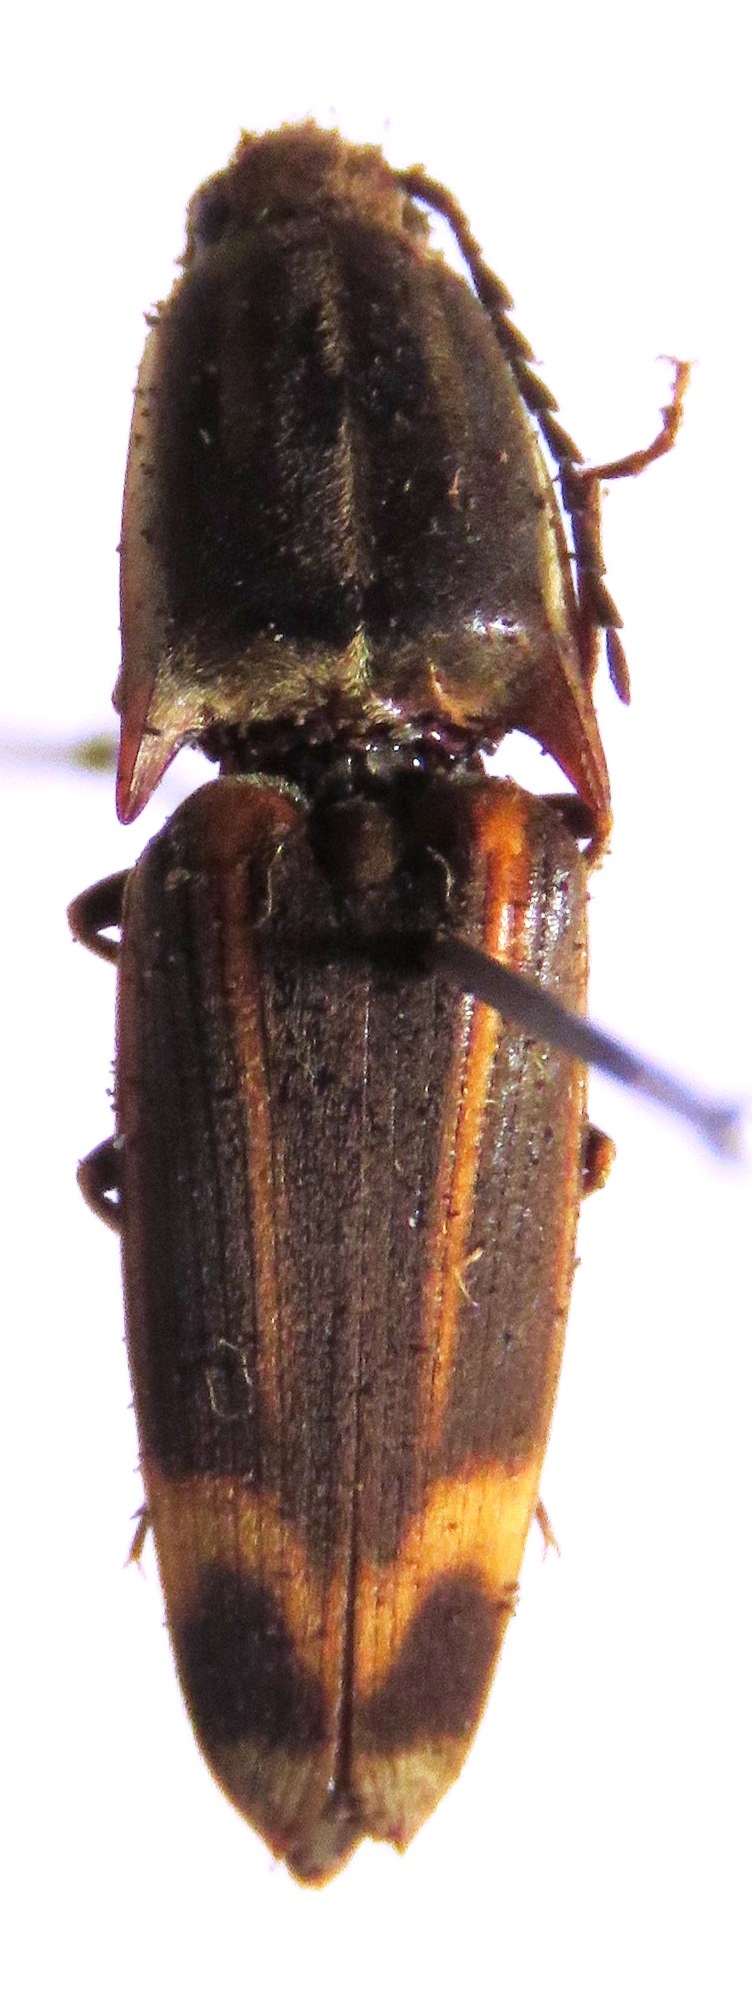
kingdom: Animalia
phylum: Arthropoda
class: Insecta
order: Coleoptera
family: Elateridae
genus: Monocrepidius
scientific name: Monocrepidius
